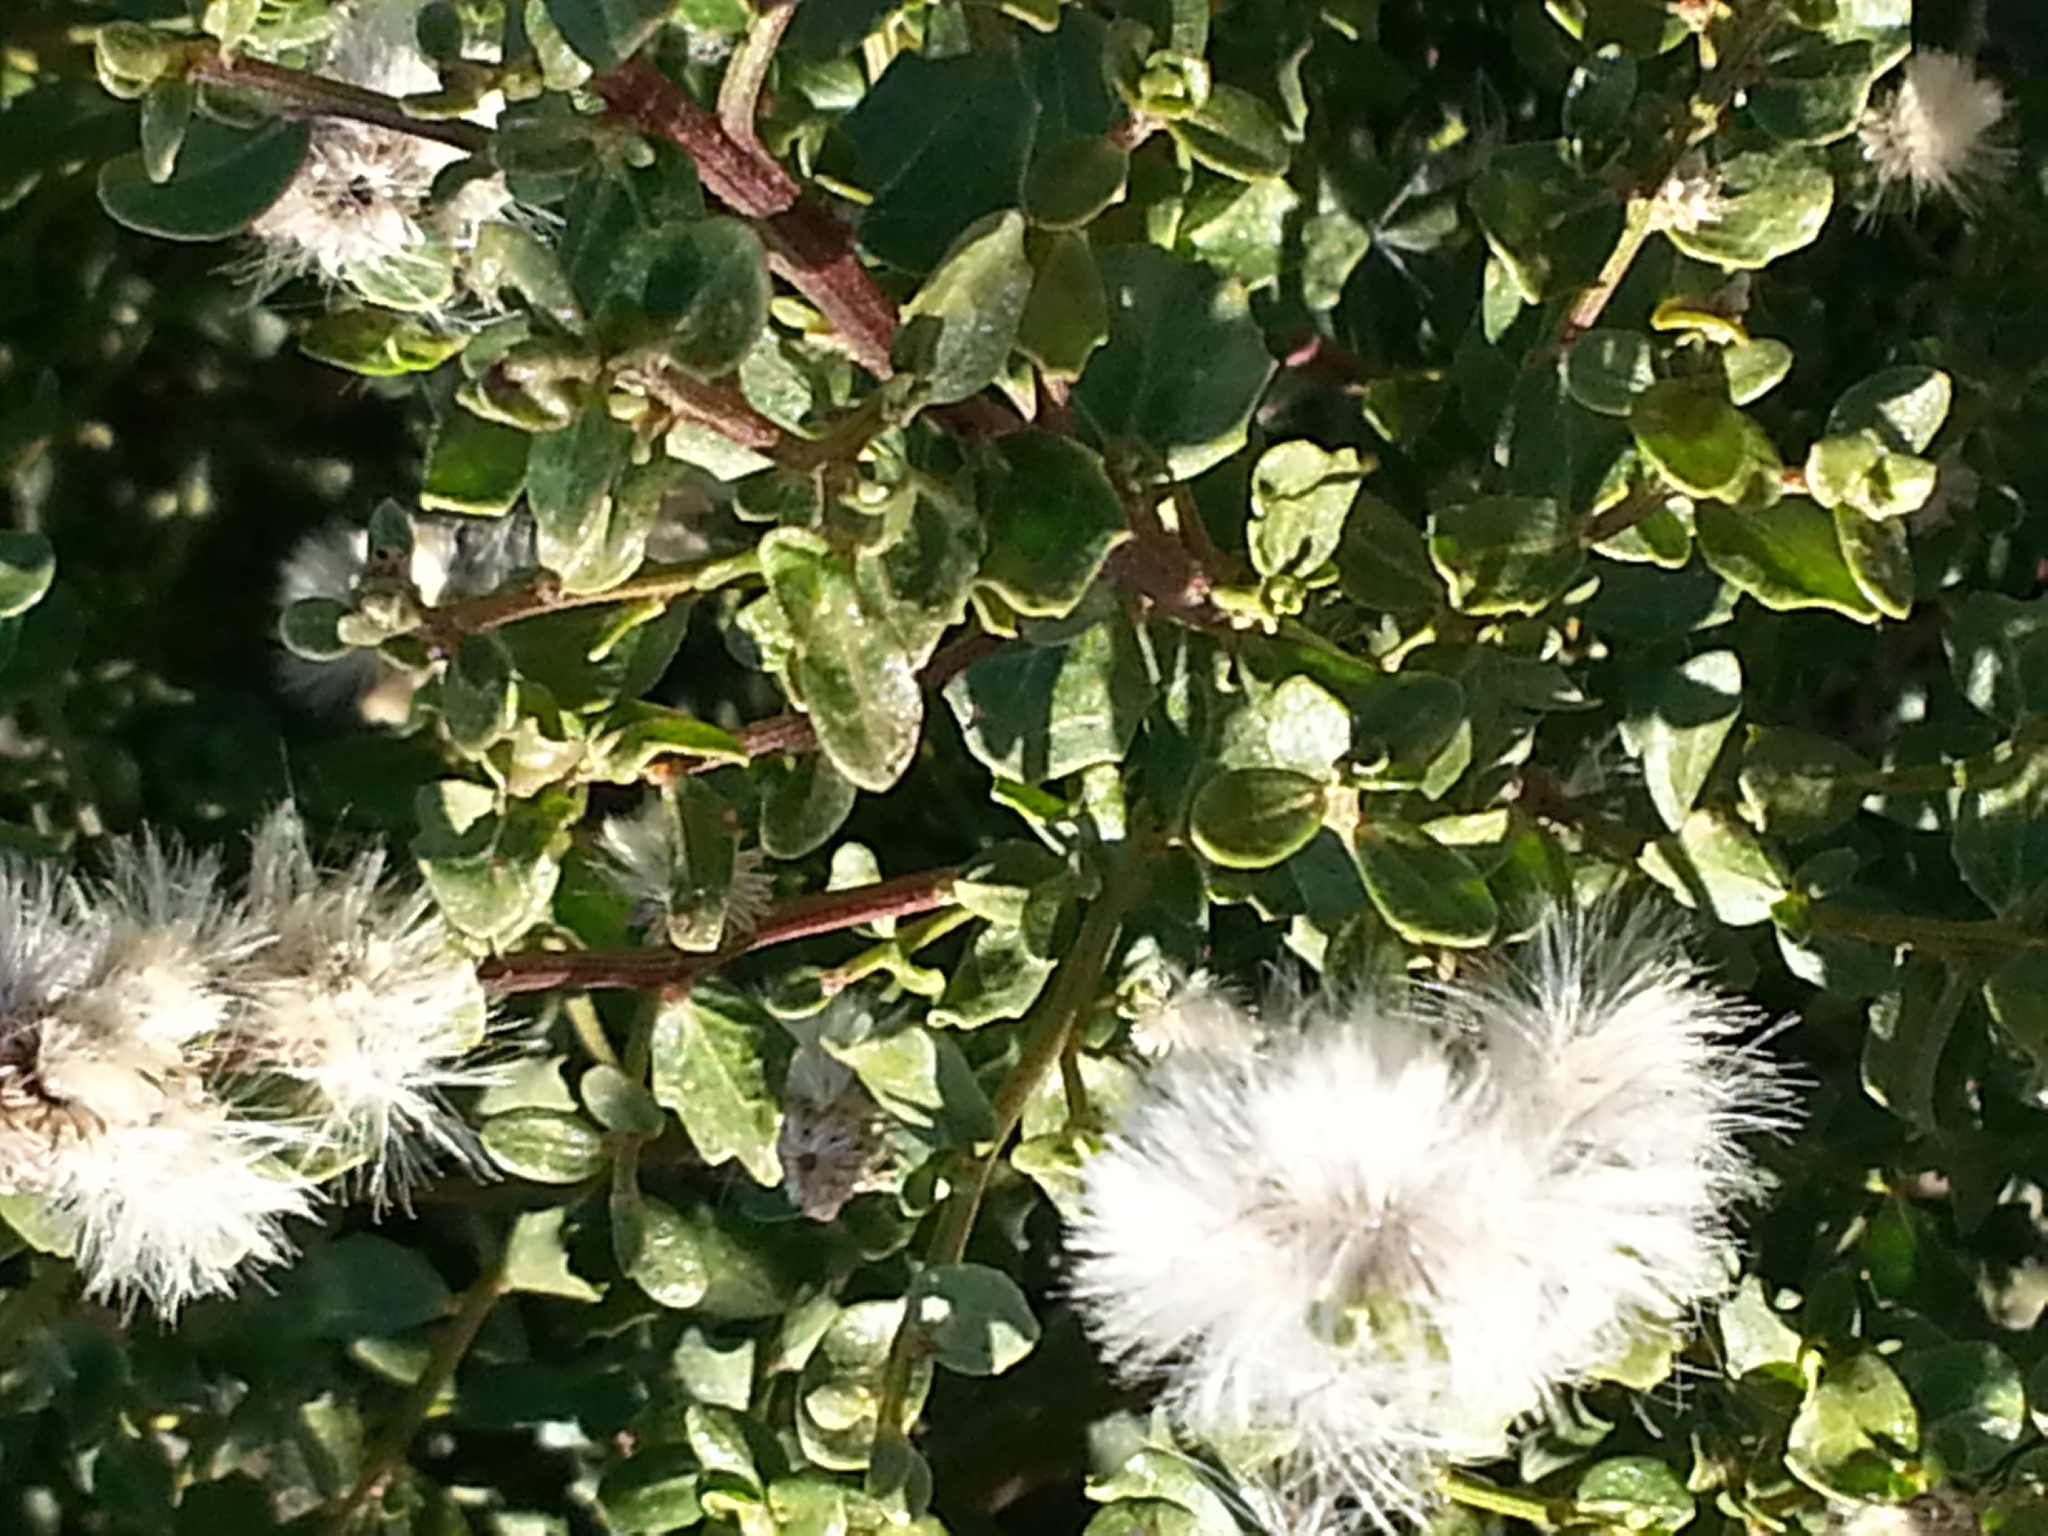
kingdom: Plantae
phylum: Tracheophyta
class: Magnoliopsida
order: Asterales
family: Asteraceae
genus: Baccharis
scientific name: Baccharis pilularis
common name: Coyotebrush
